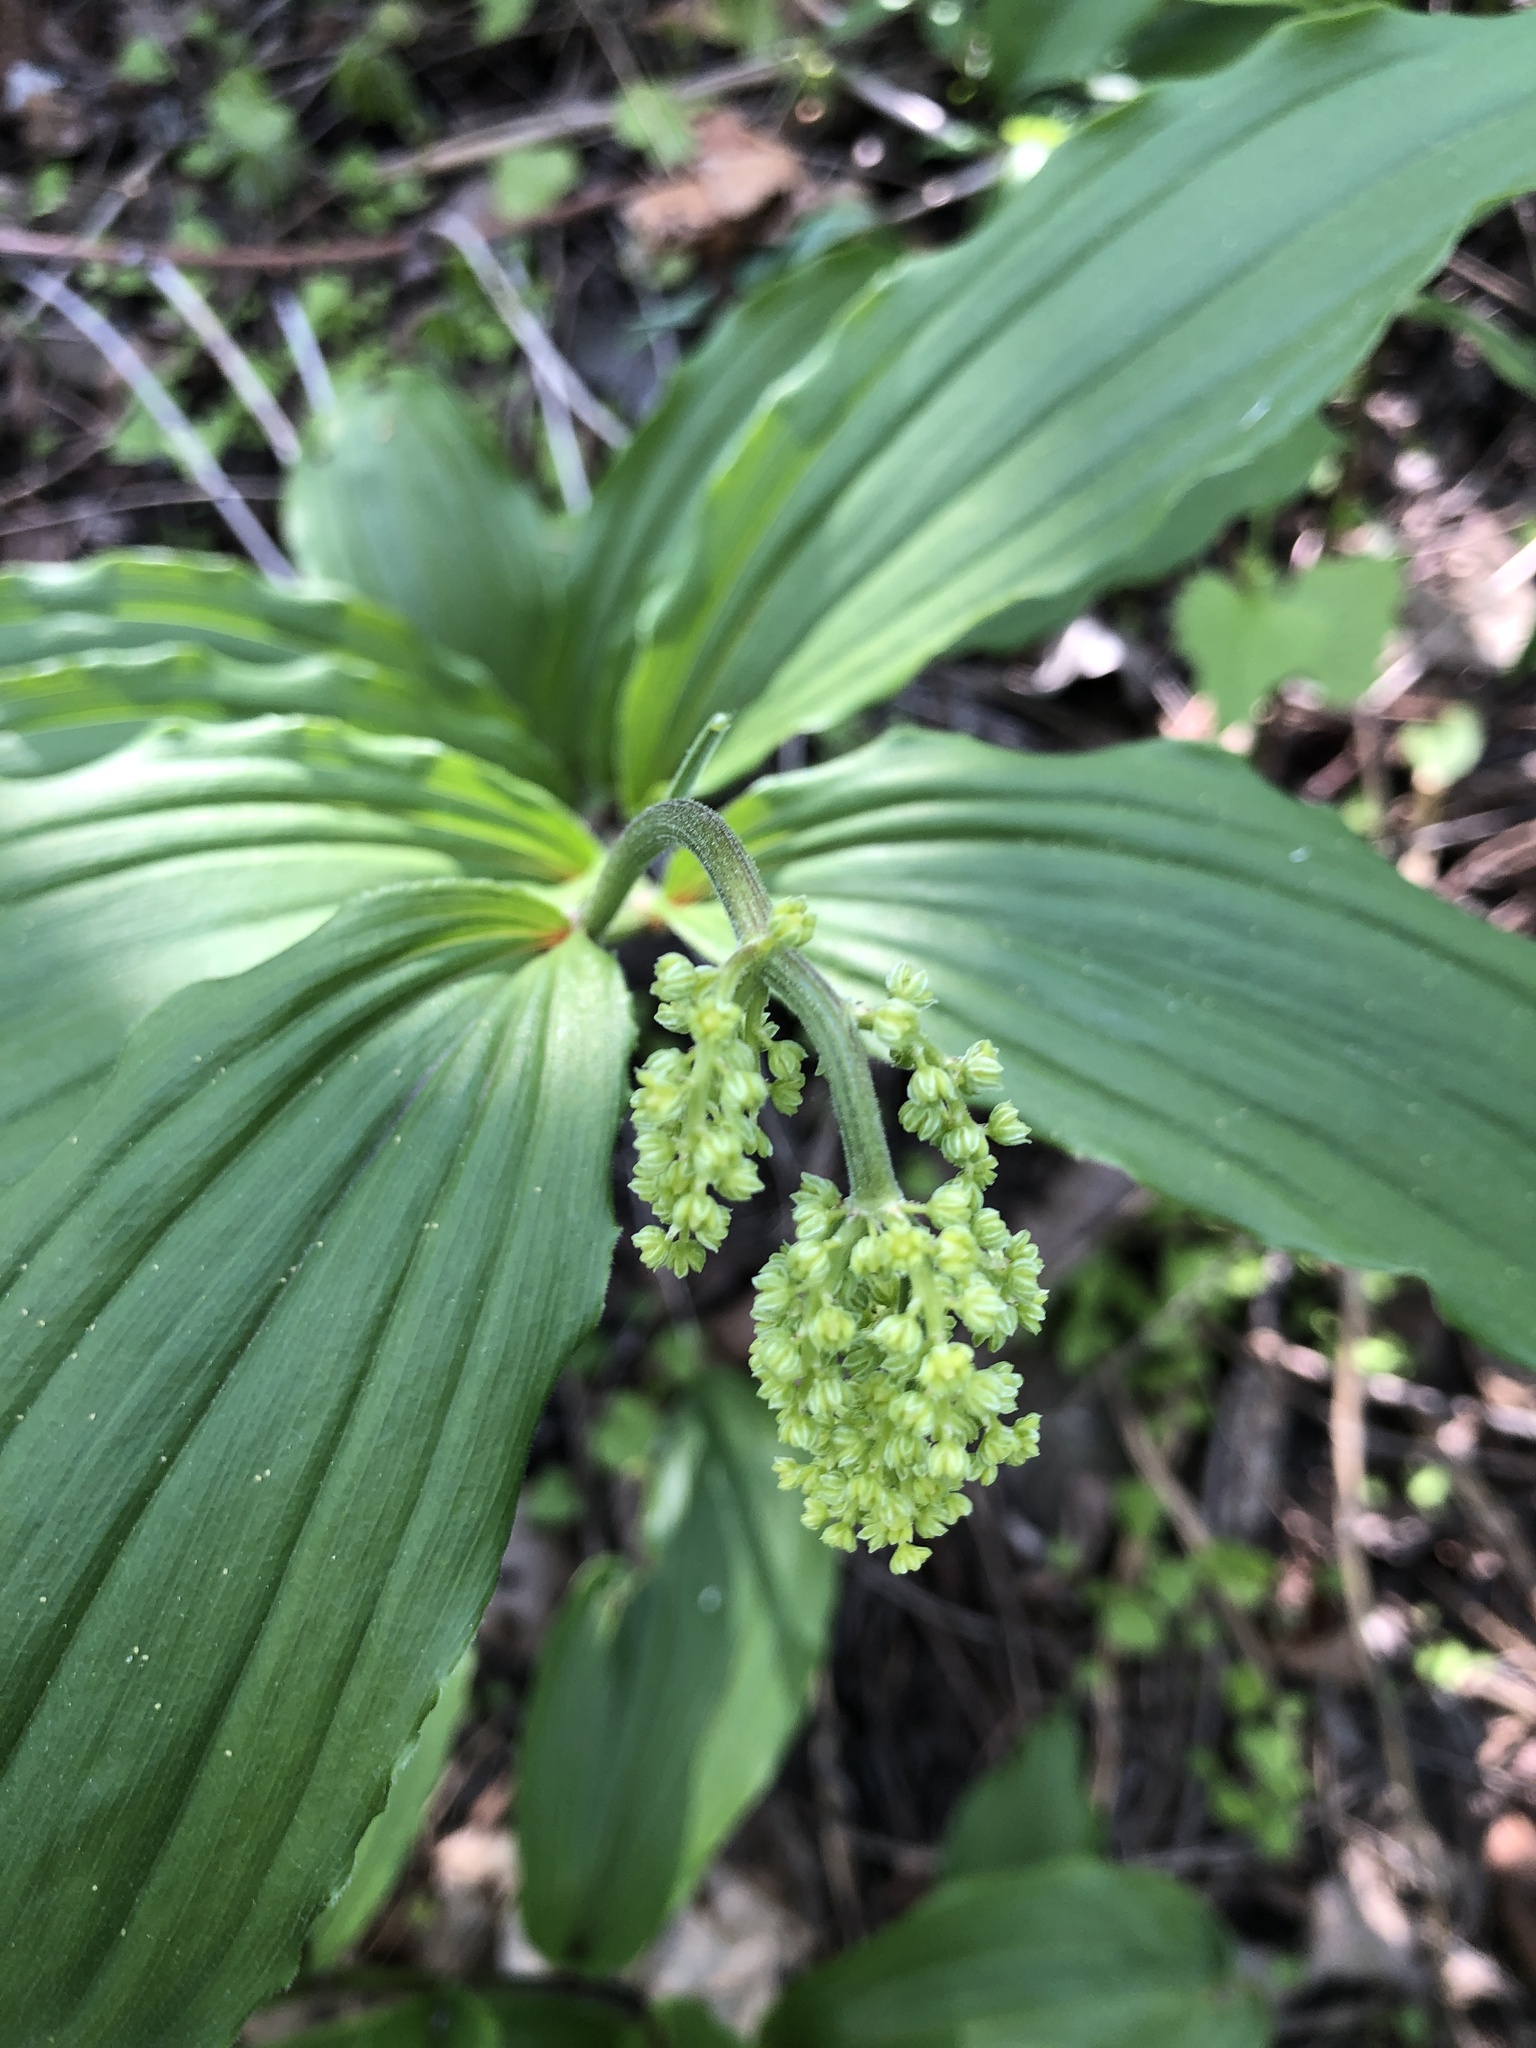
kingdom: Plantae
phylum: Tracheophyta
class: Liliopsida
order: Asparagales
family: Asparagaceae
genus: Maianthemum
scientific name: Maianthemum racemosum
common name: False spikenard
